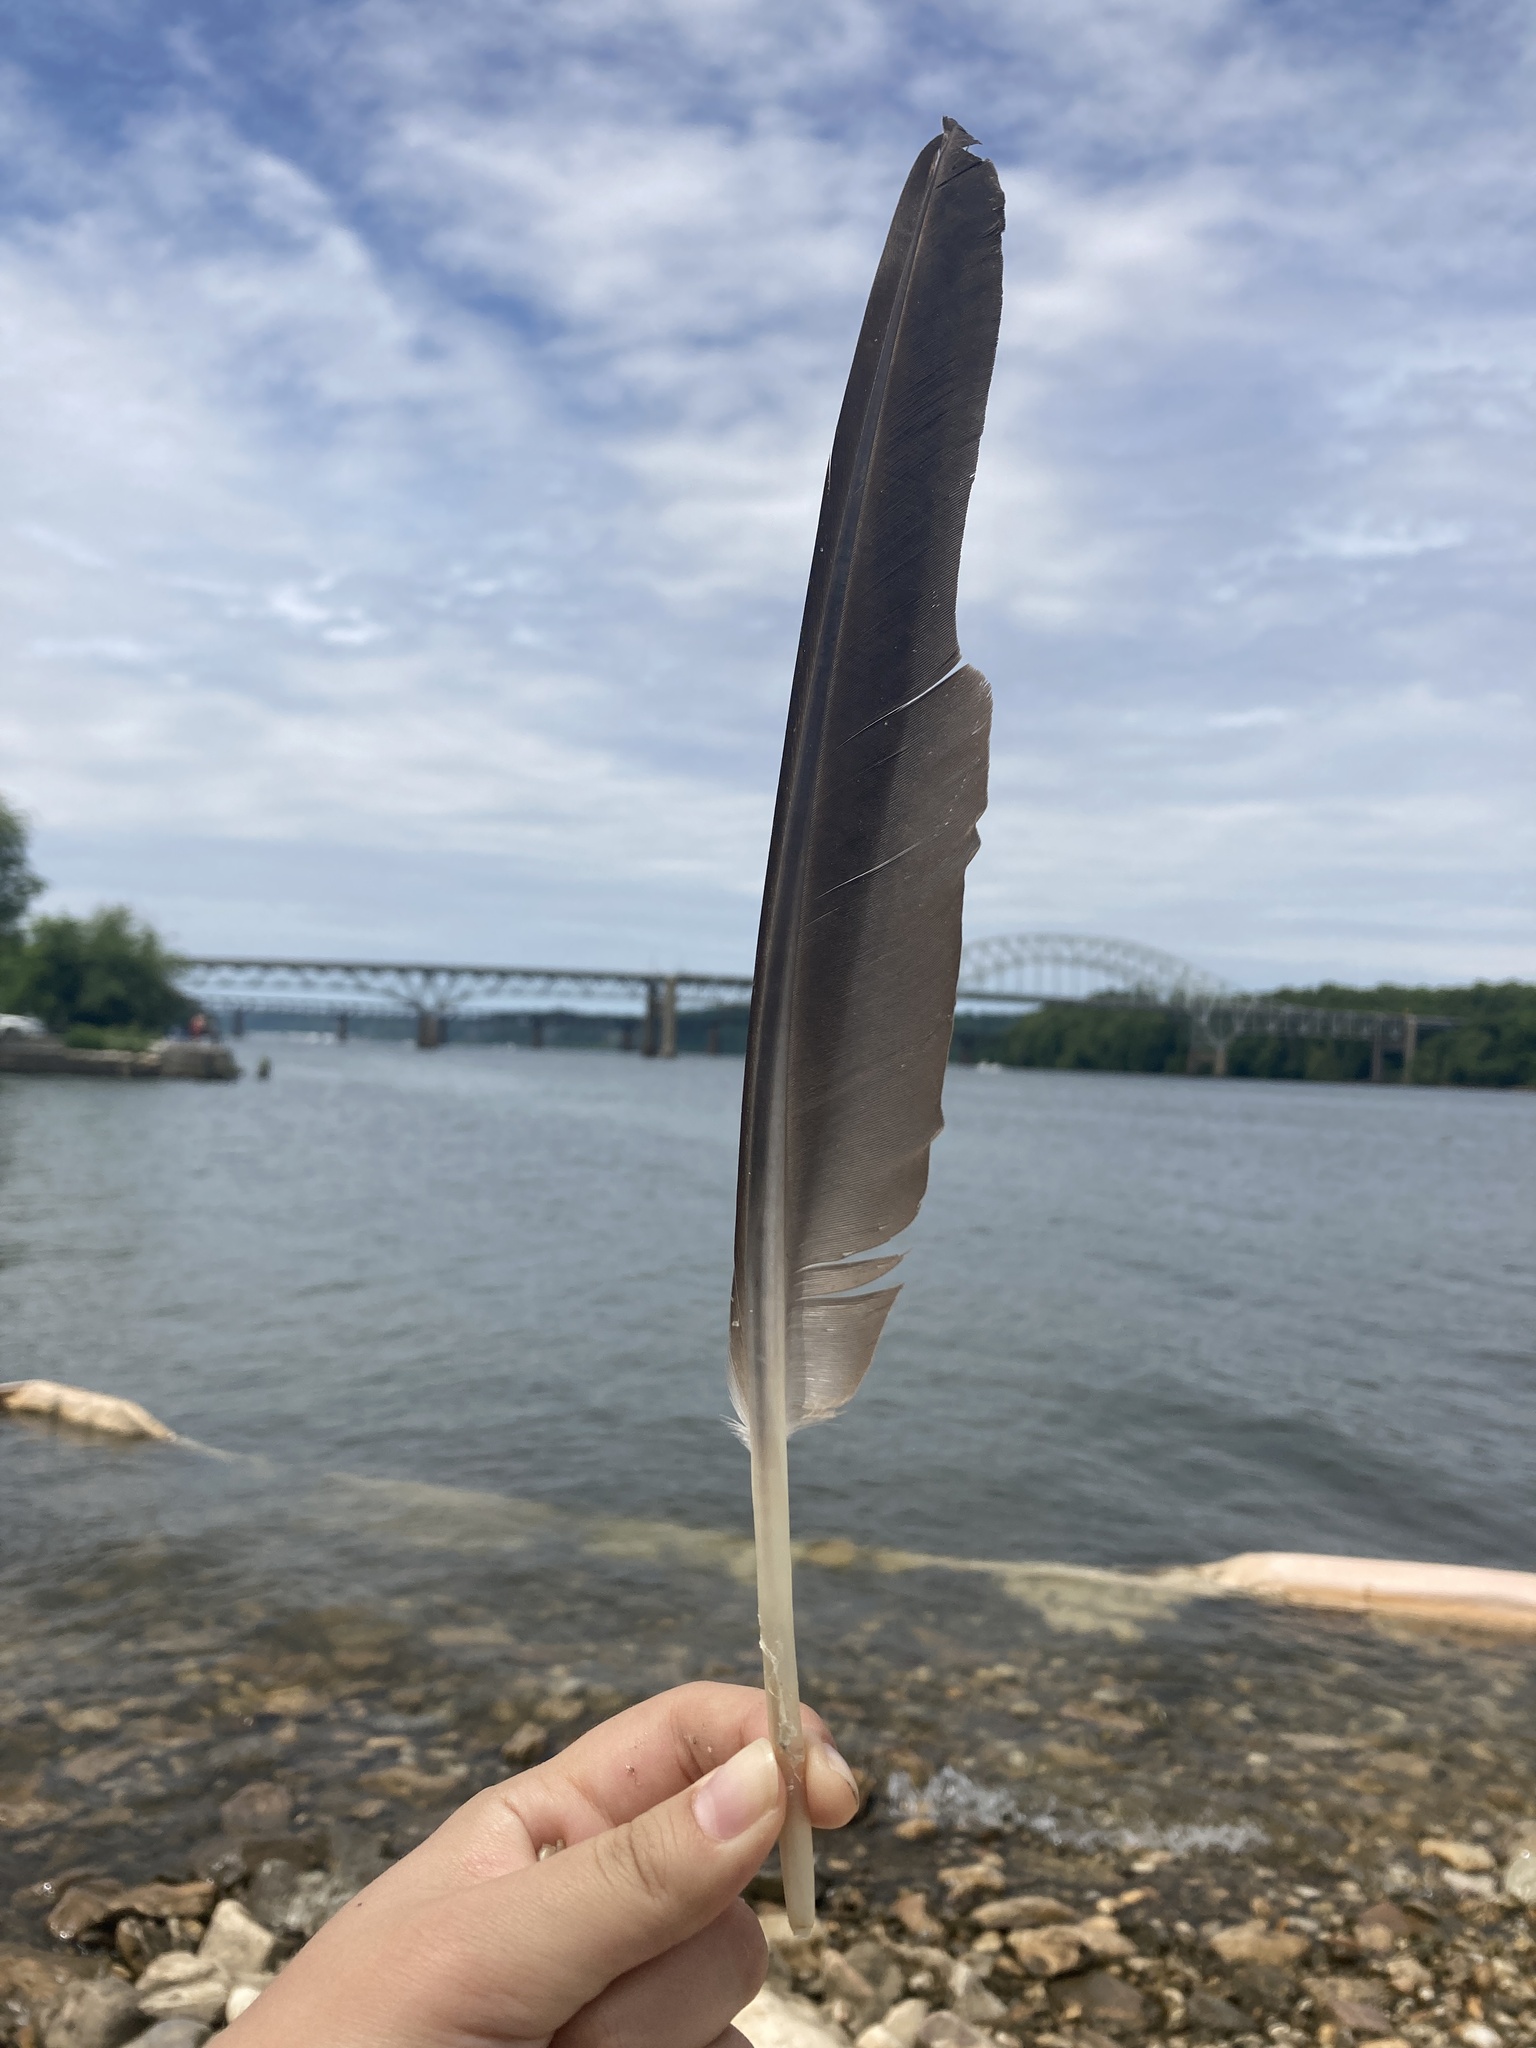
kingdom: Animalia
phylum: Chordata
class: Aves
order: Anseriformes
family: Anatidae
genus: Branta
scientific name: Branta canadensis
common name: Canada goose
